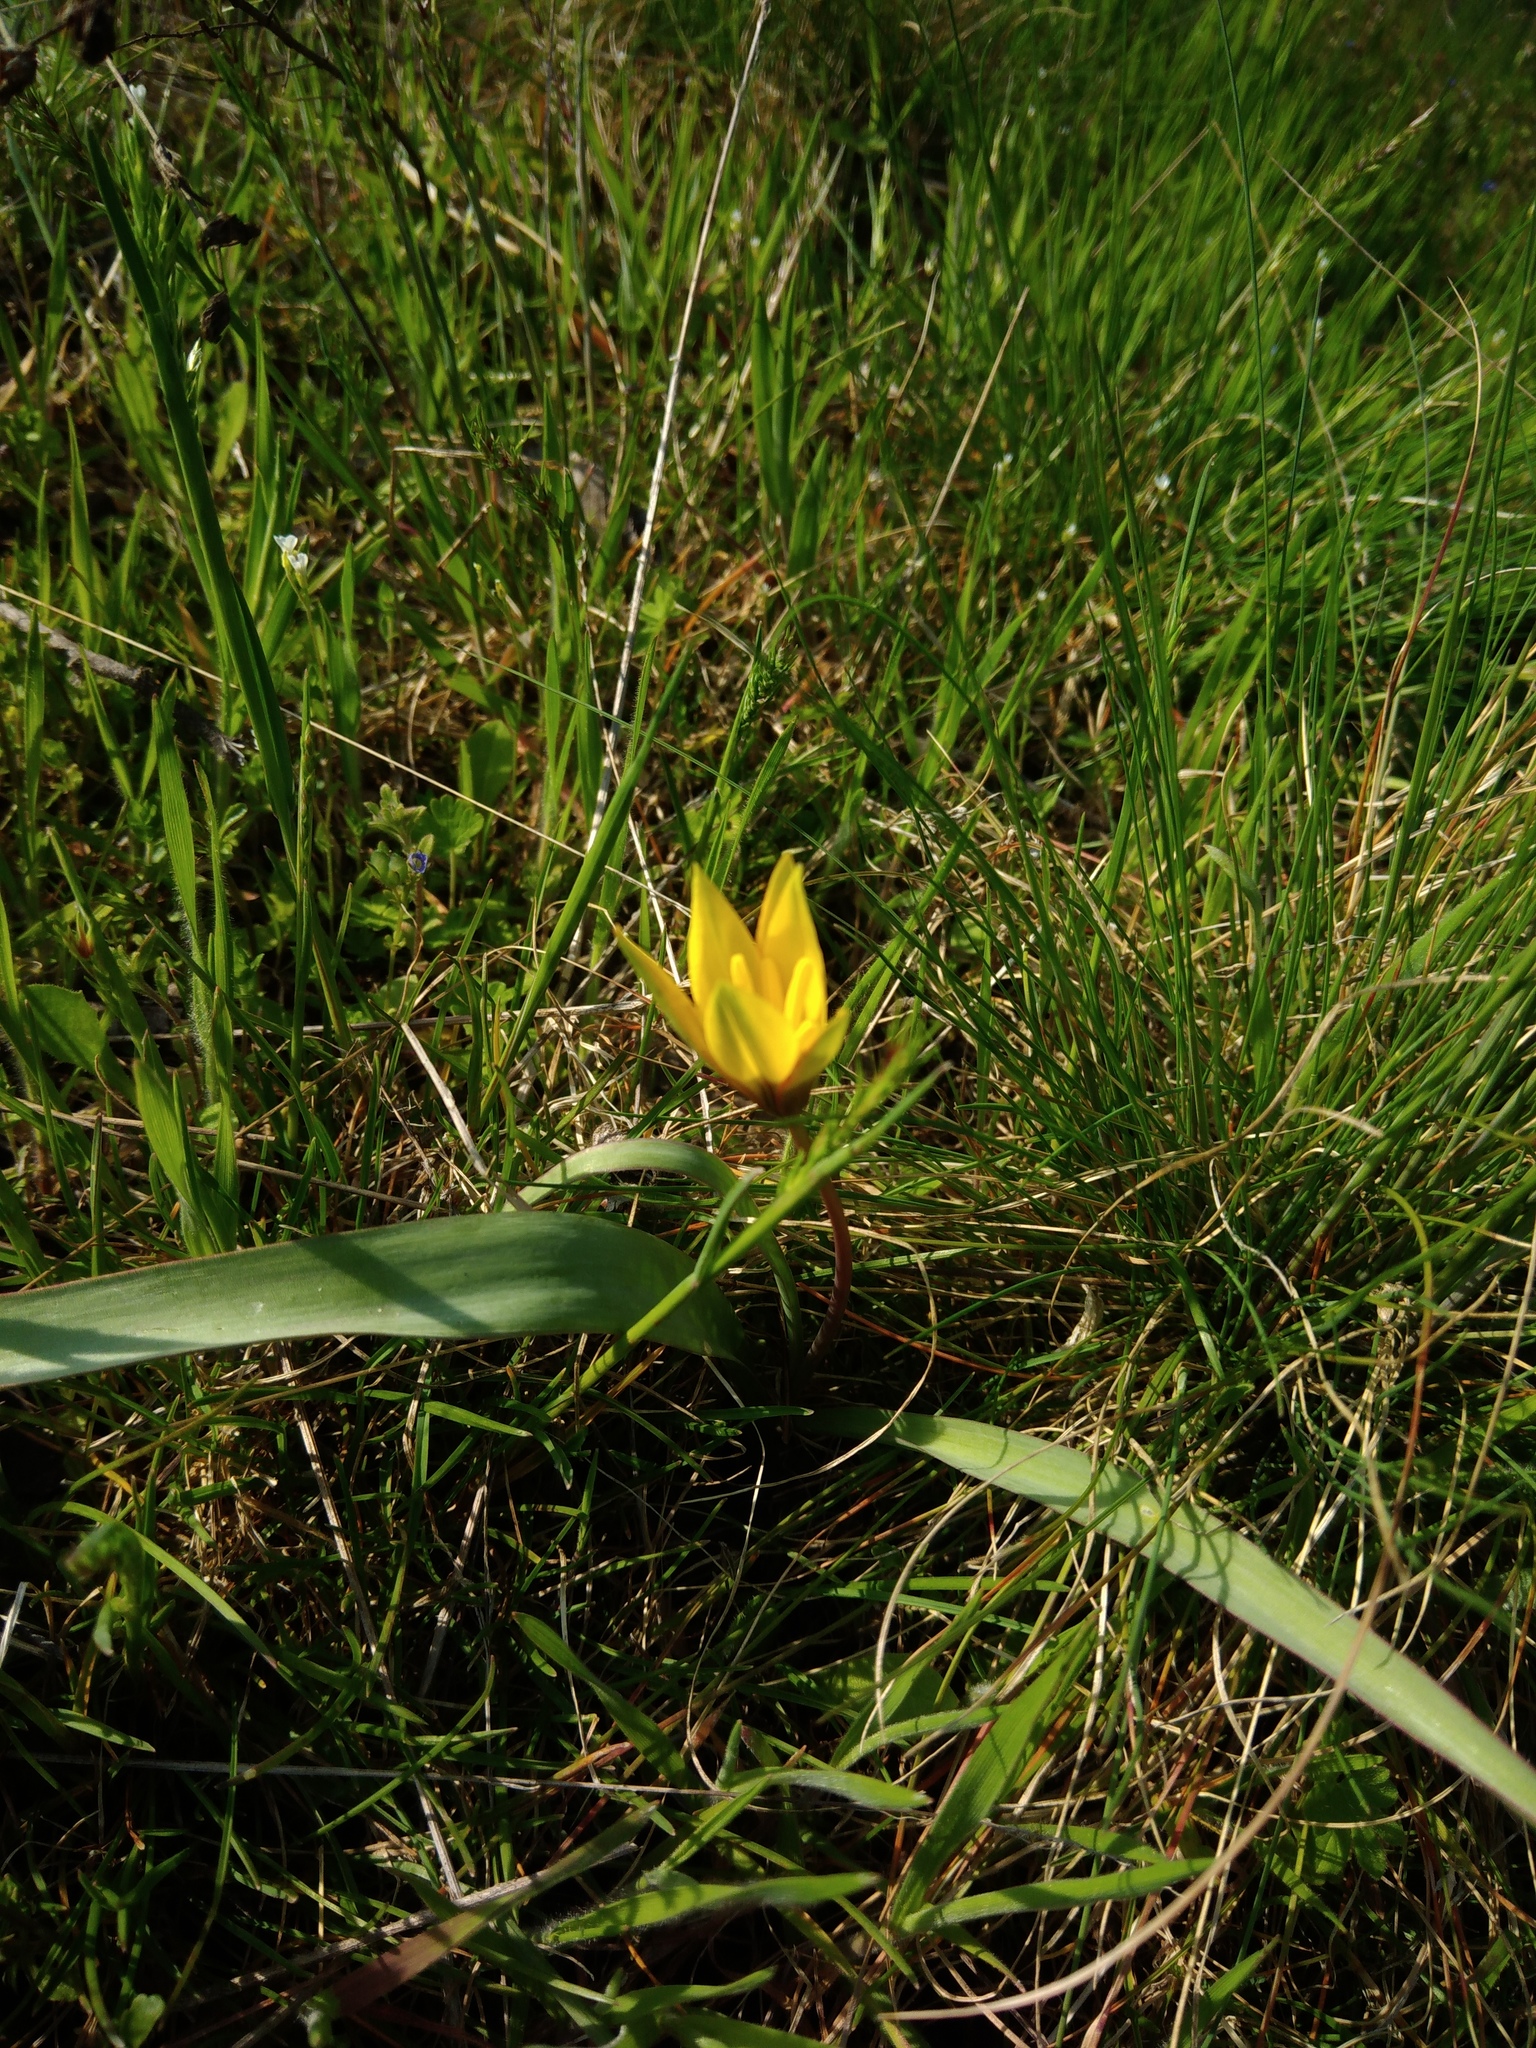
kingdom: Plantae
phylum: Tracheophyta
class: Liliopsida
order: Liliales
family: Liliaceae
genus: Tulipa
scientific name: Tulipa sylvestris
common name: Wild tulip
